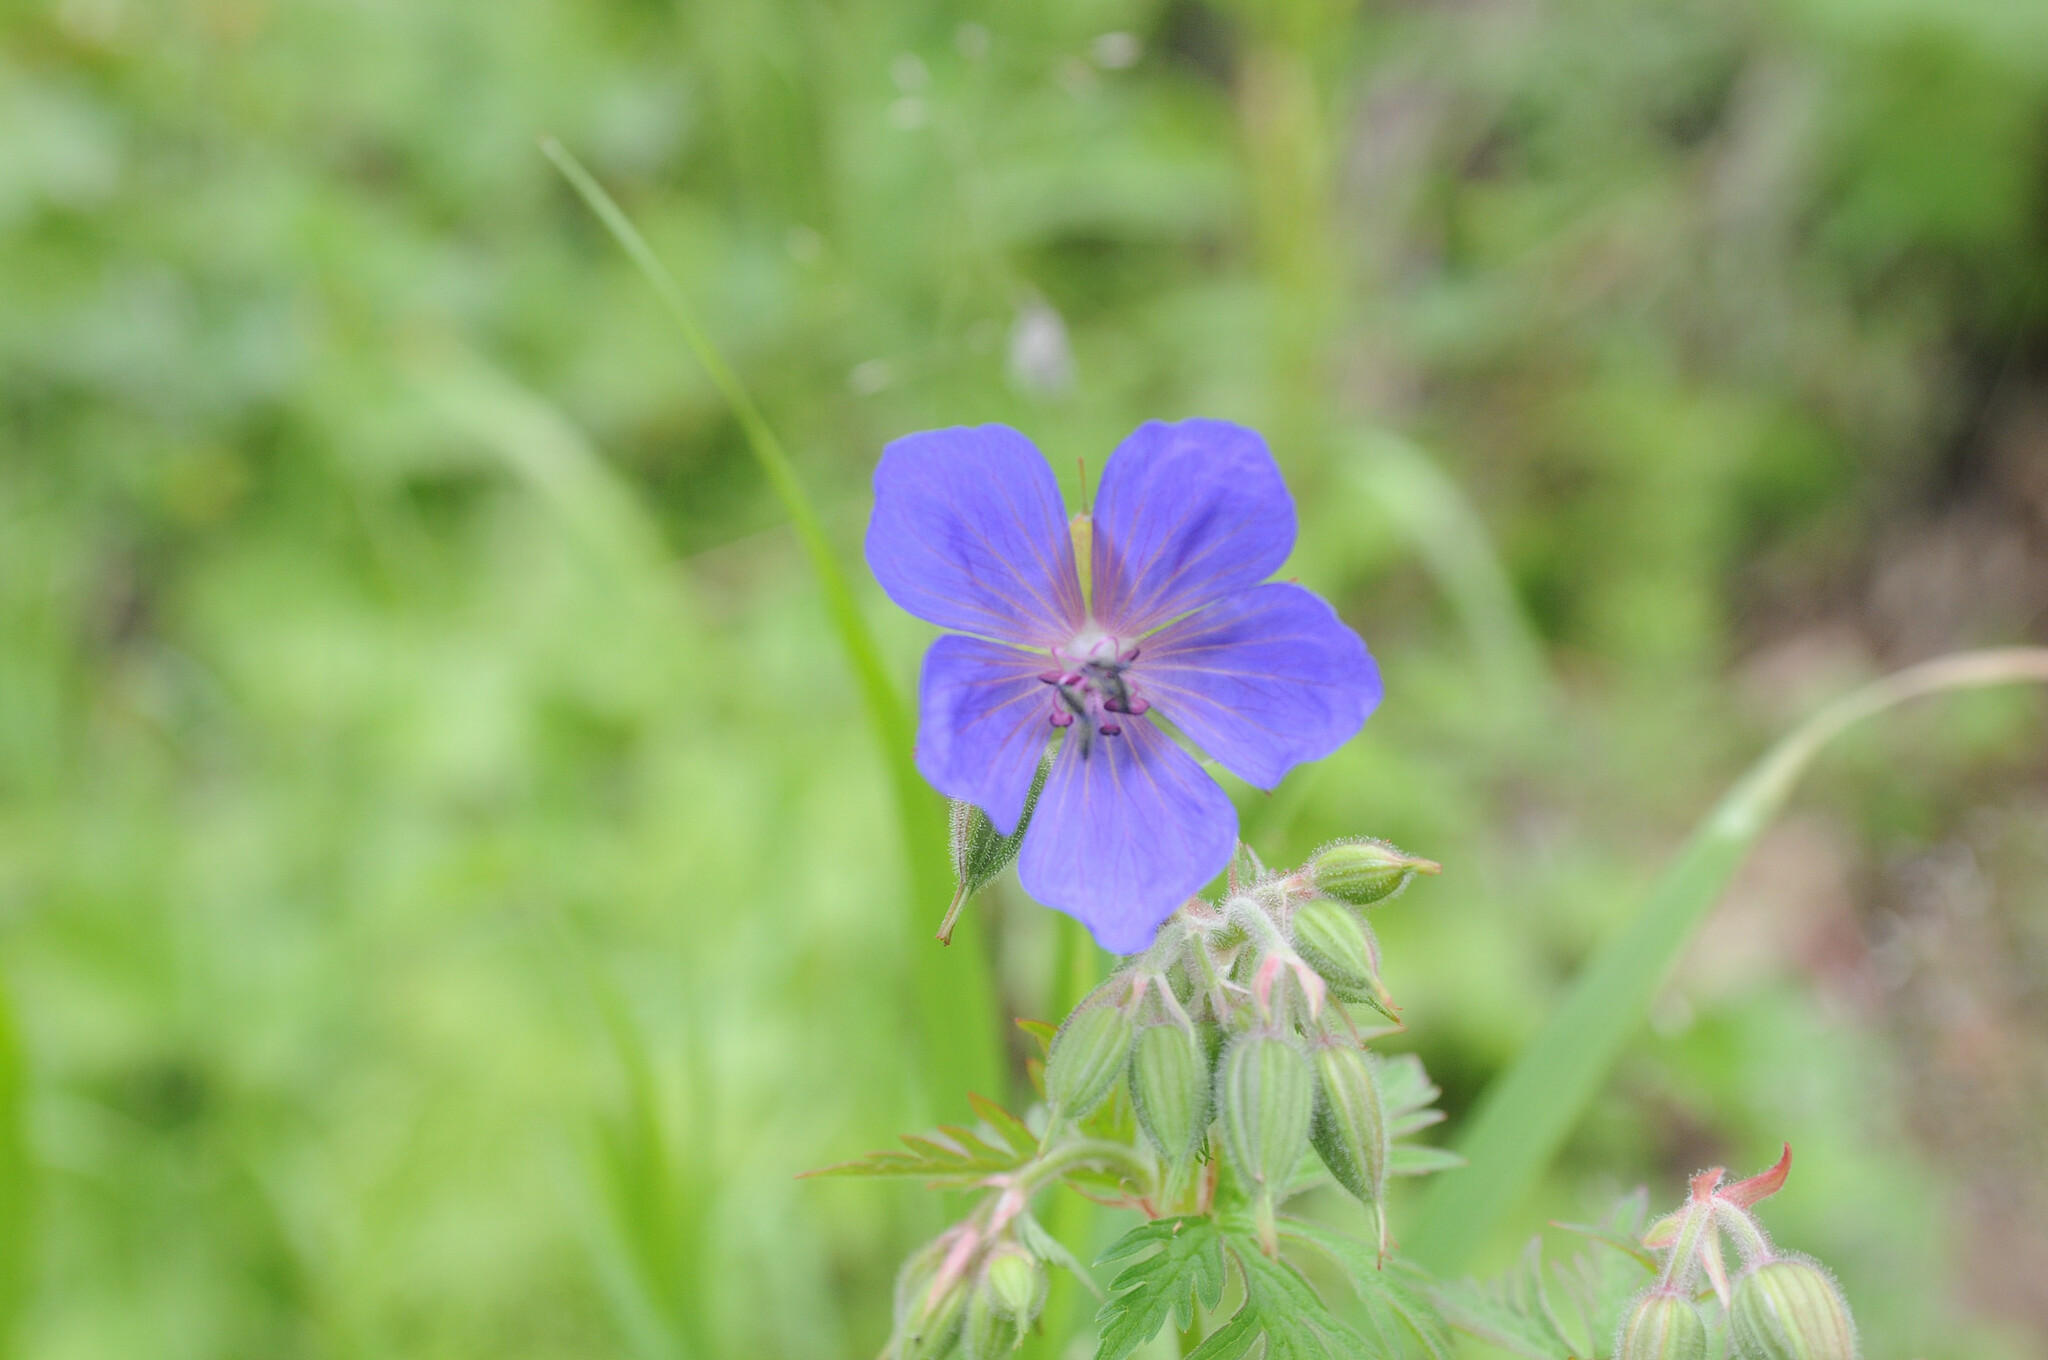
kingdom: Plantae
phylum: Tracheophyta
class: Magnoliopsida
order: Geraniales
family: Geraniaceae
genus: Geranium
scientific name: Geranium pratense
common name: Meadow crane's-bill
